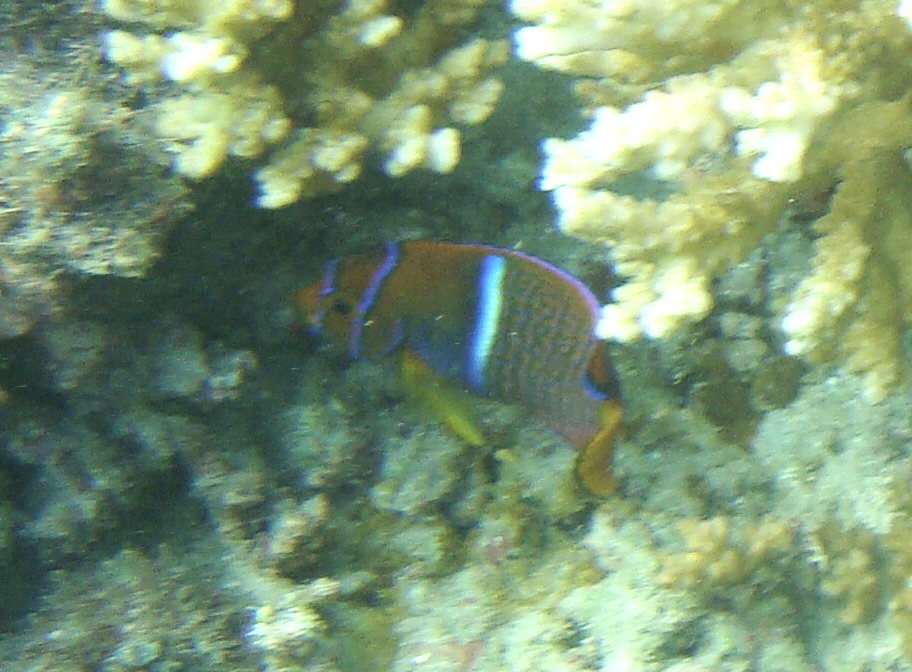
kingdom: Animalia
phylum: Chordata
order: Perciformes
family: Pomacanthidae
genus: Holacanthus
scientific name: Holacanthus passer
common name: King angelfish
